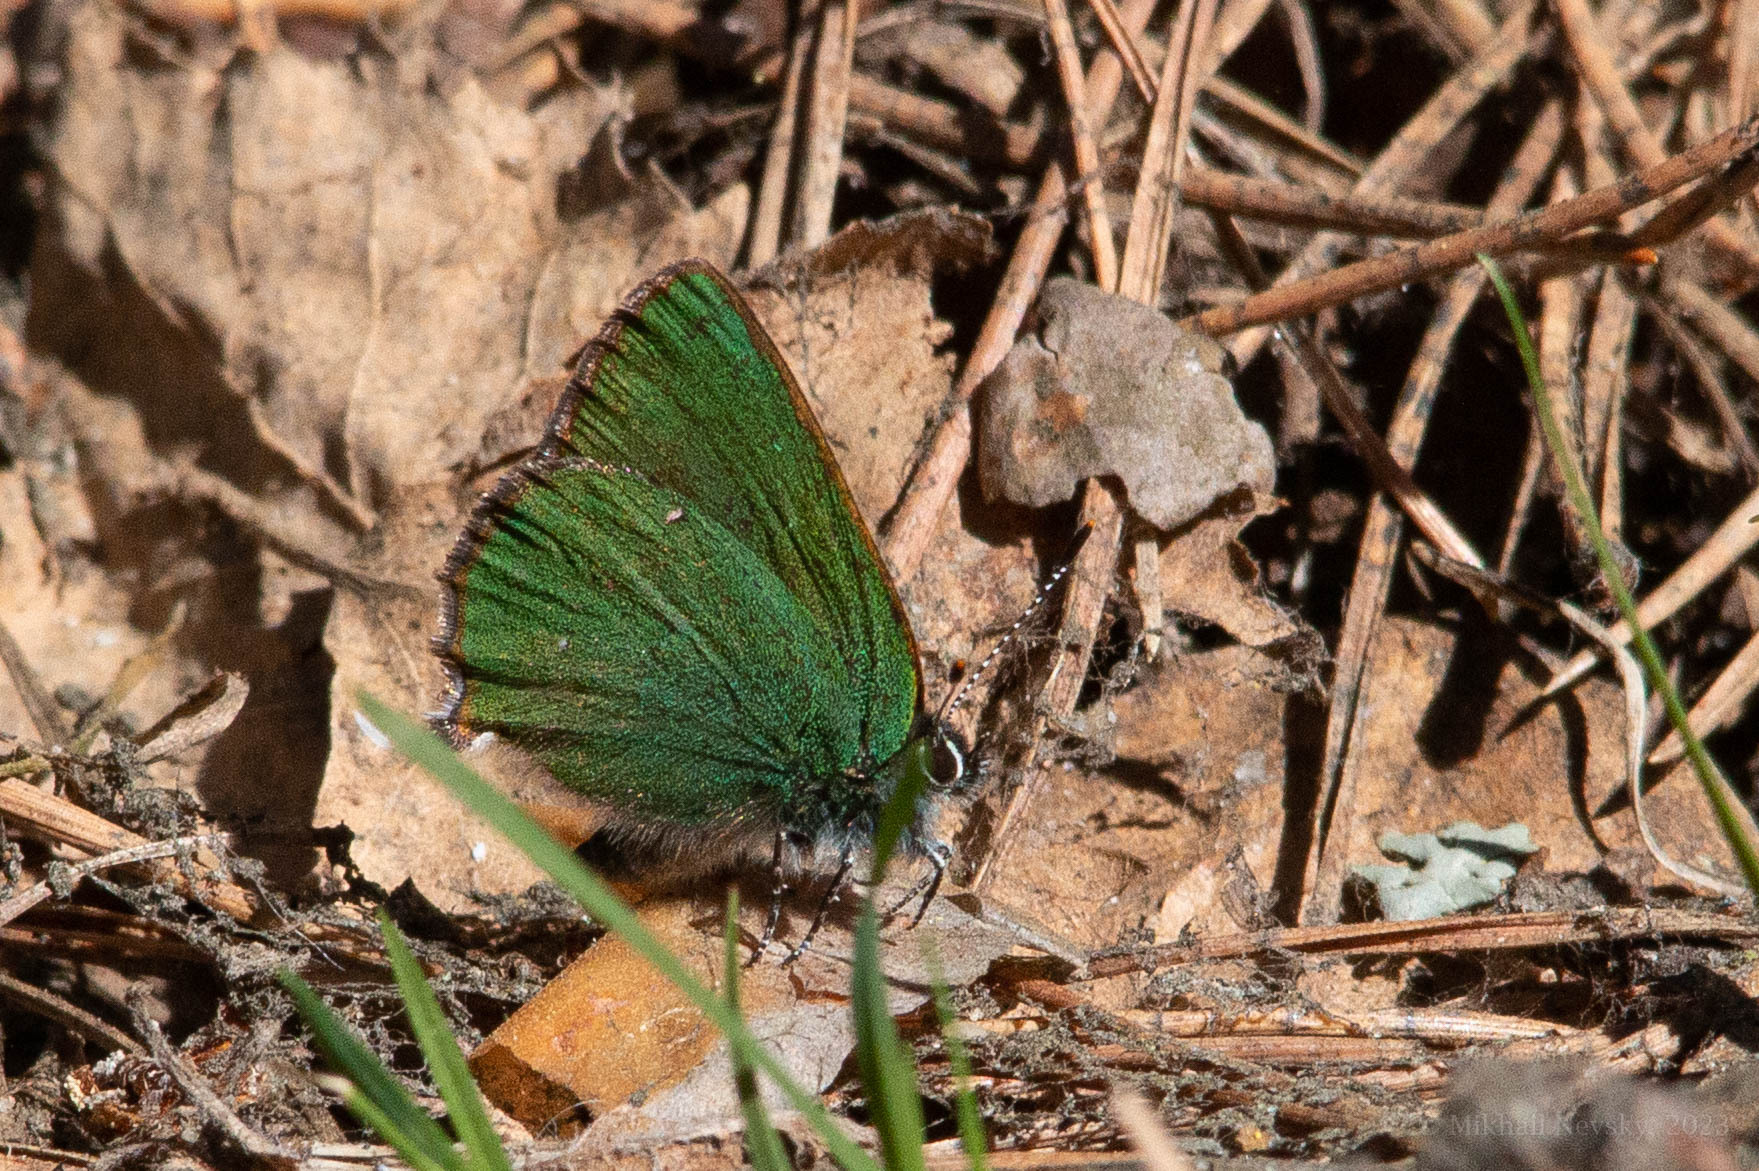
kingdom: Animalia
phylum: Arthropoda
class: Insecta
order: Lepidoptera
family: Lycaenidae
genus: Callophrys
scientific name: Callophrys rubi
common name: Green hairstreak
